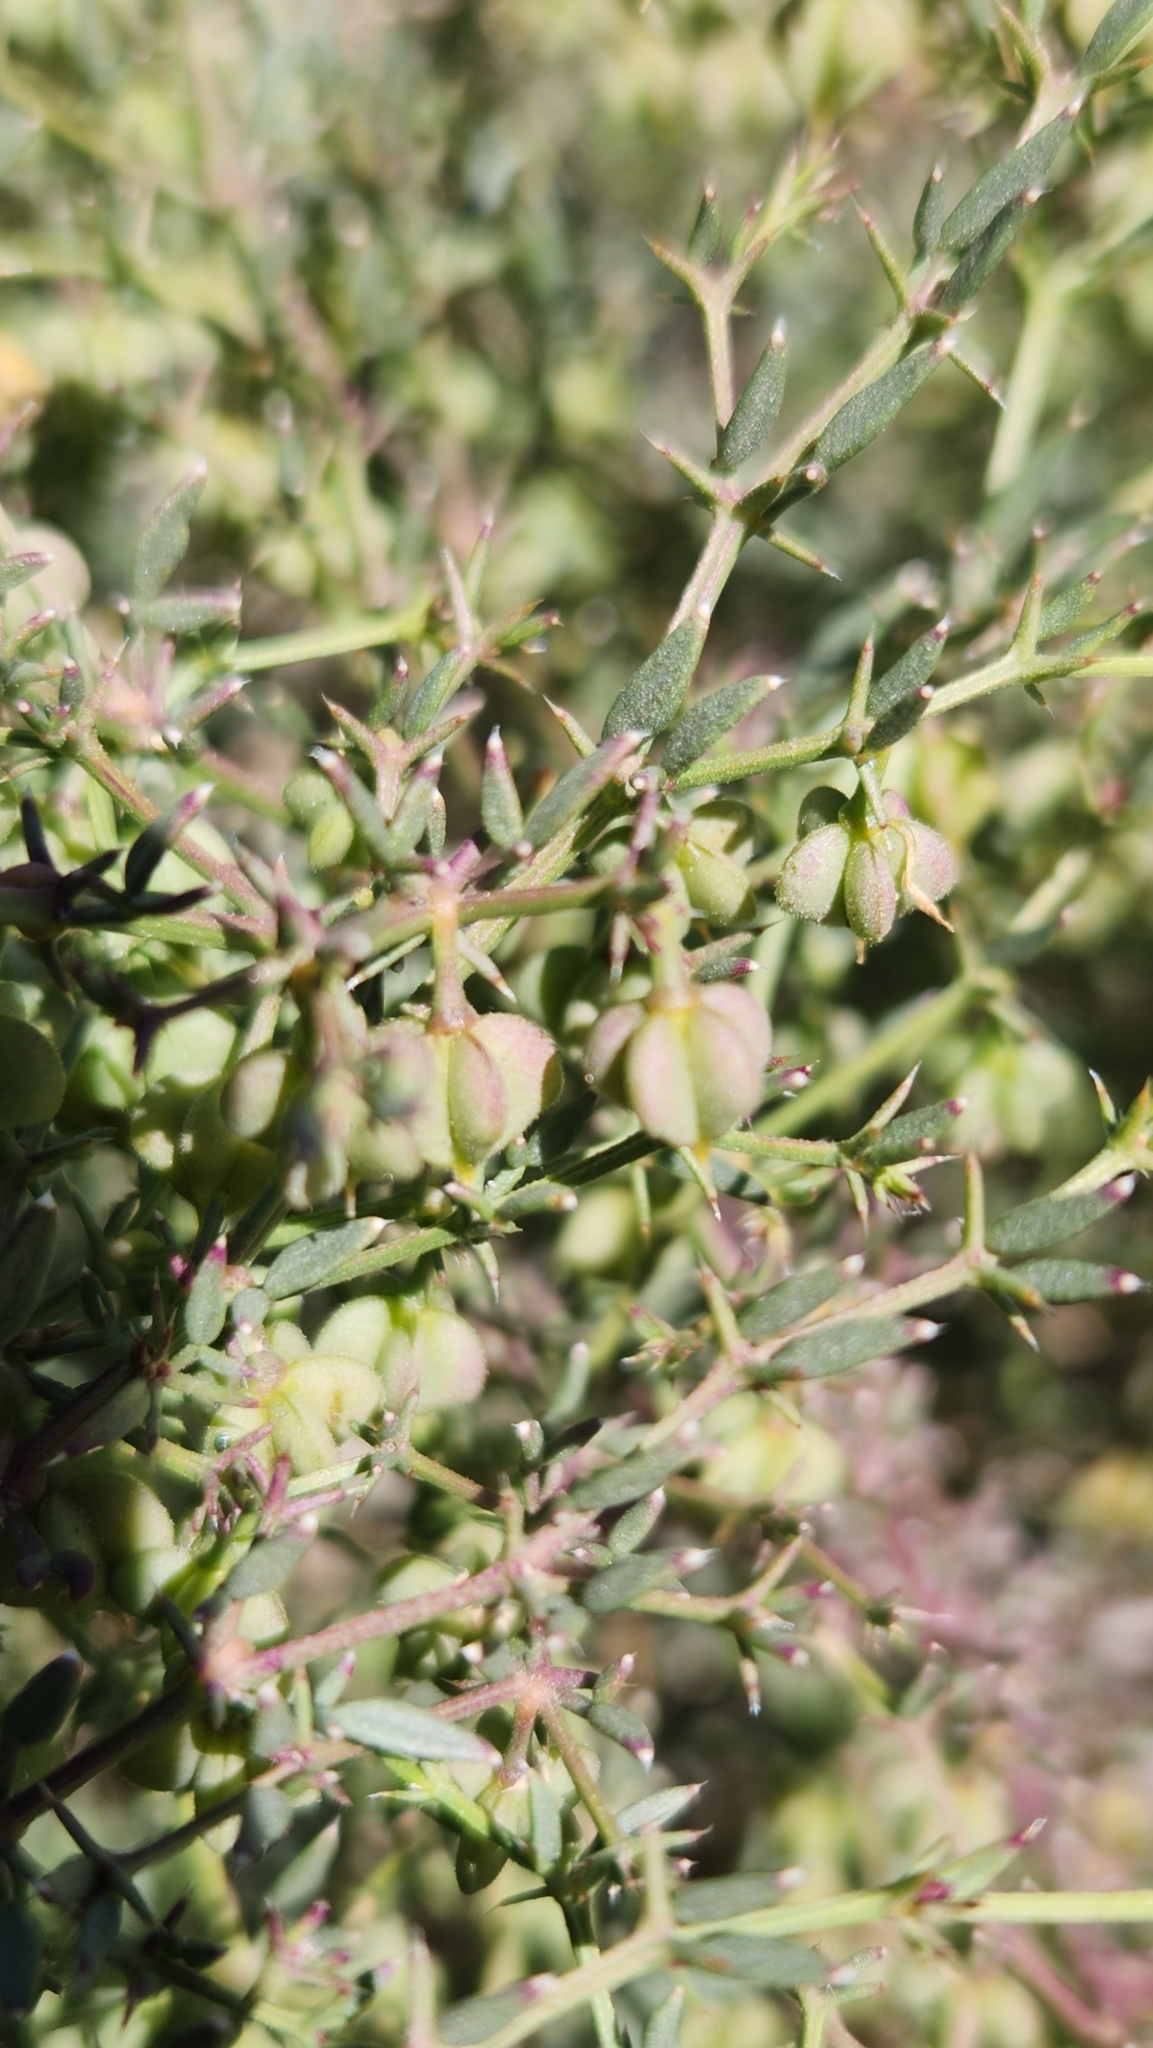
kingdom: Plantae
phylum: Tracheophyta
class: Magnoliopsida
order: Zygophyllales
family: Zygophyllaceae
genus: Fagonia
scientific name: Fagonia laevis
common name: California fagonbush
